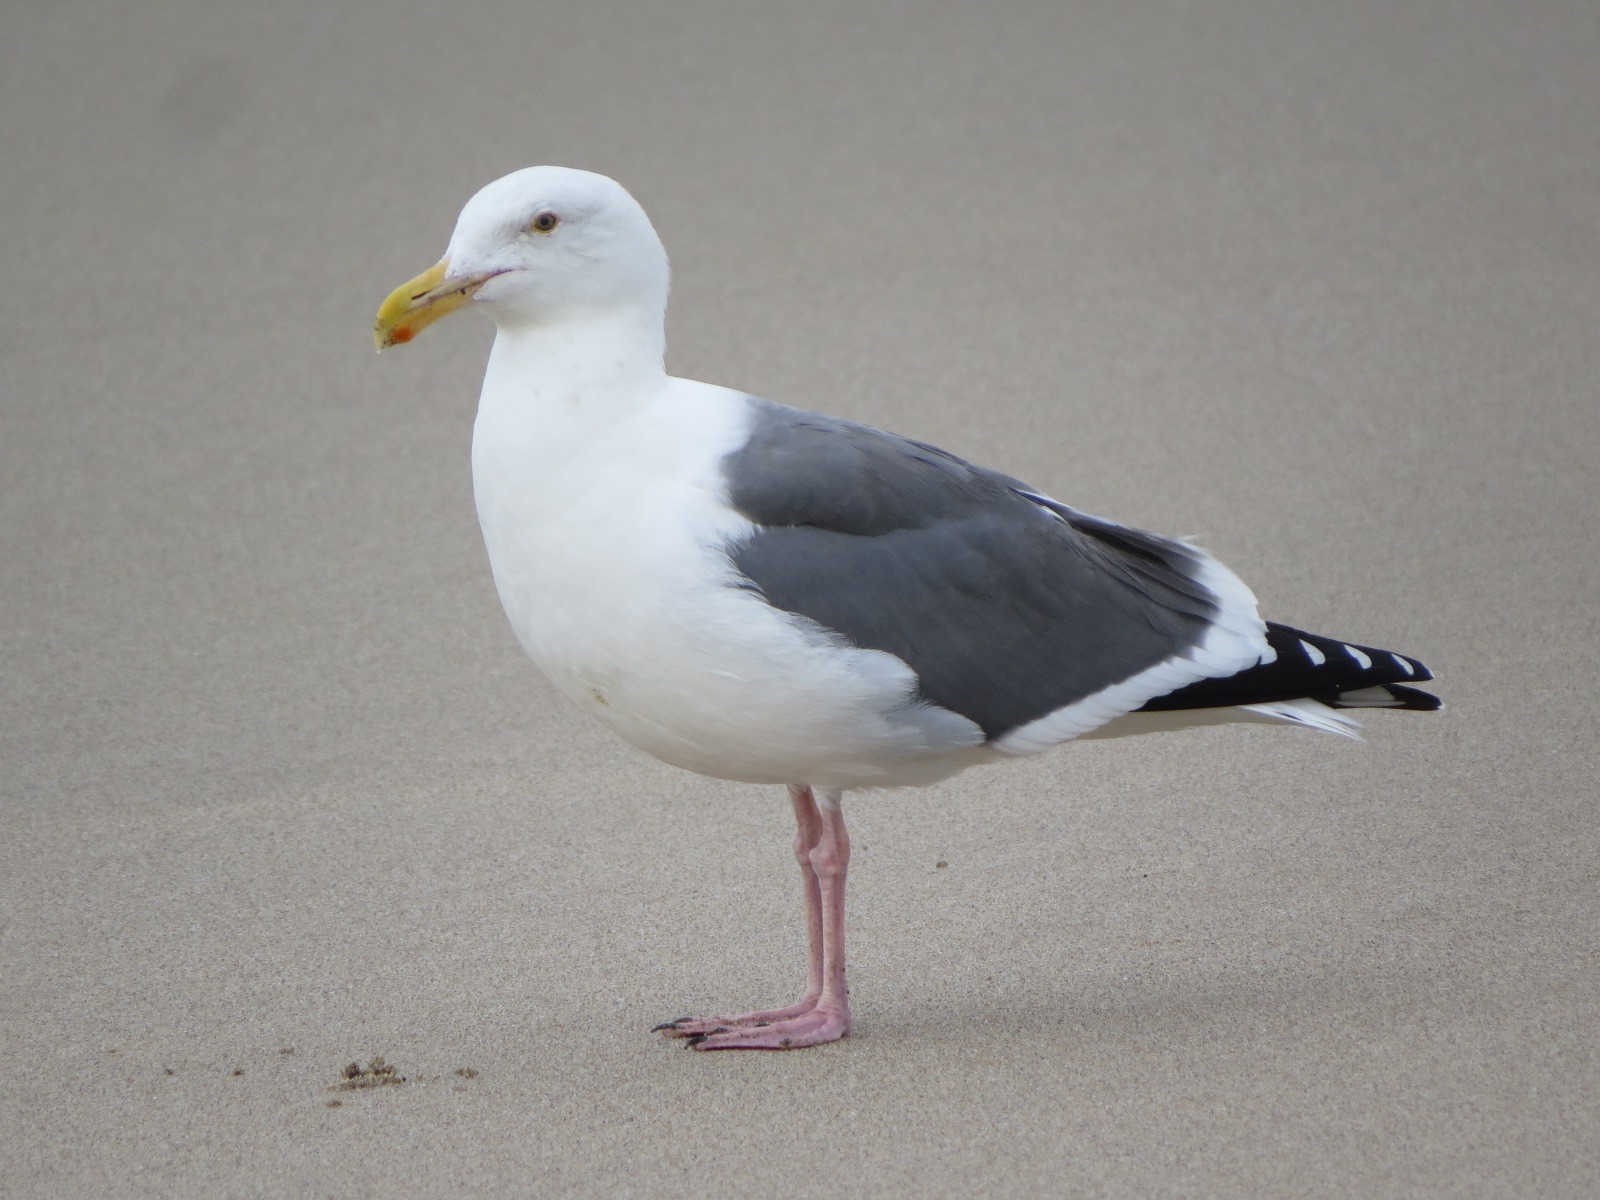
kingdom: Animalia
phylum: Chordata
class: Aves
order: Charadriiformes
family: Laridae
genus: Larus
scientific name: Larus occidentalis
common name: Western gull
